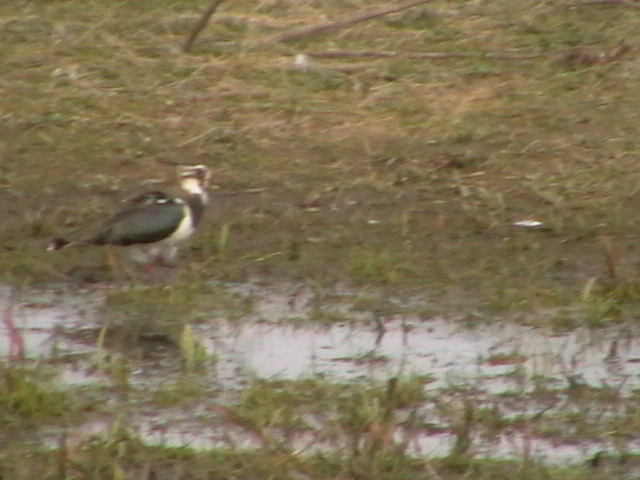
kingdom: Animalia
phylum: Chordata
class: Aves
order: Charadriiformes
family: Charadriidae
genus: Vanellus
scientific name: Vanellus vanellus
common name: Northern lapwing
